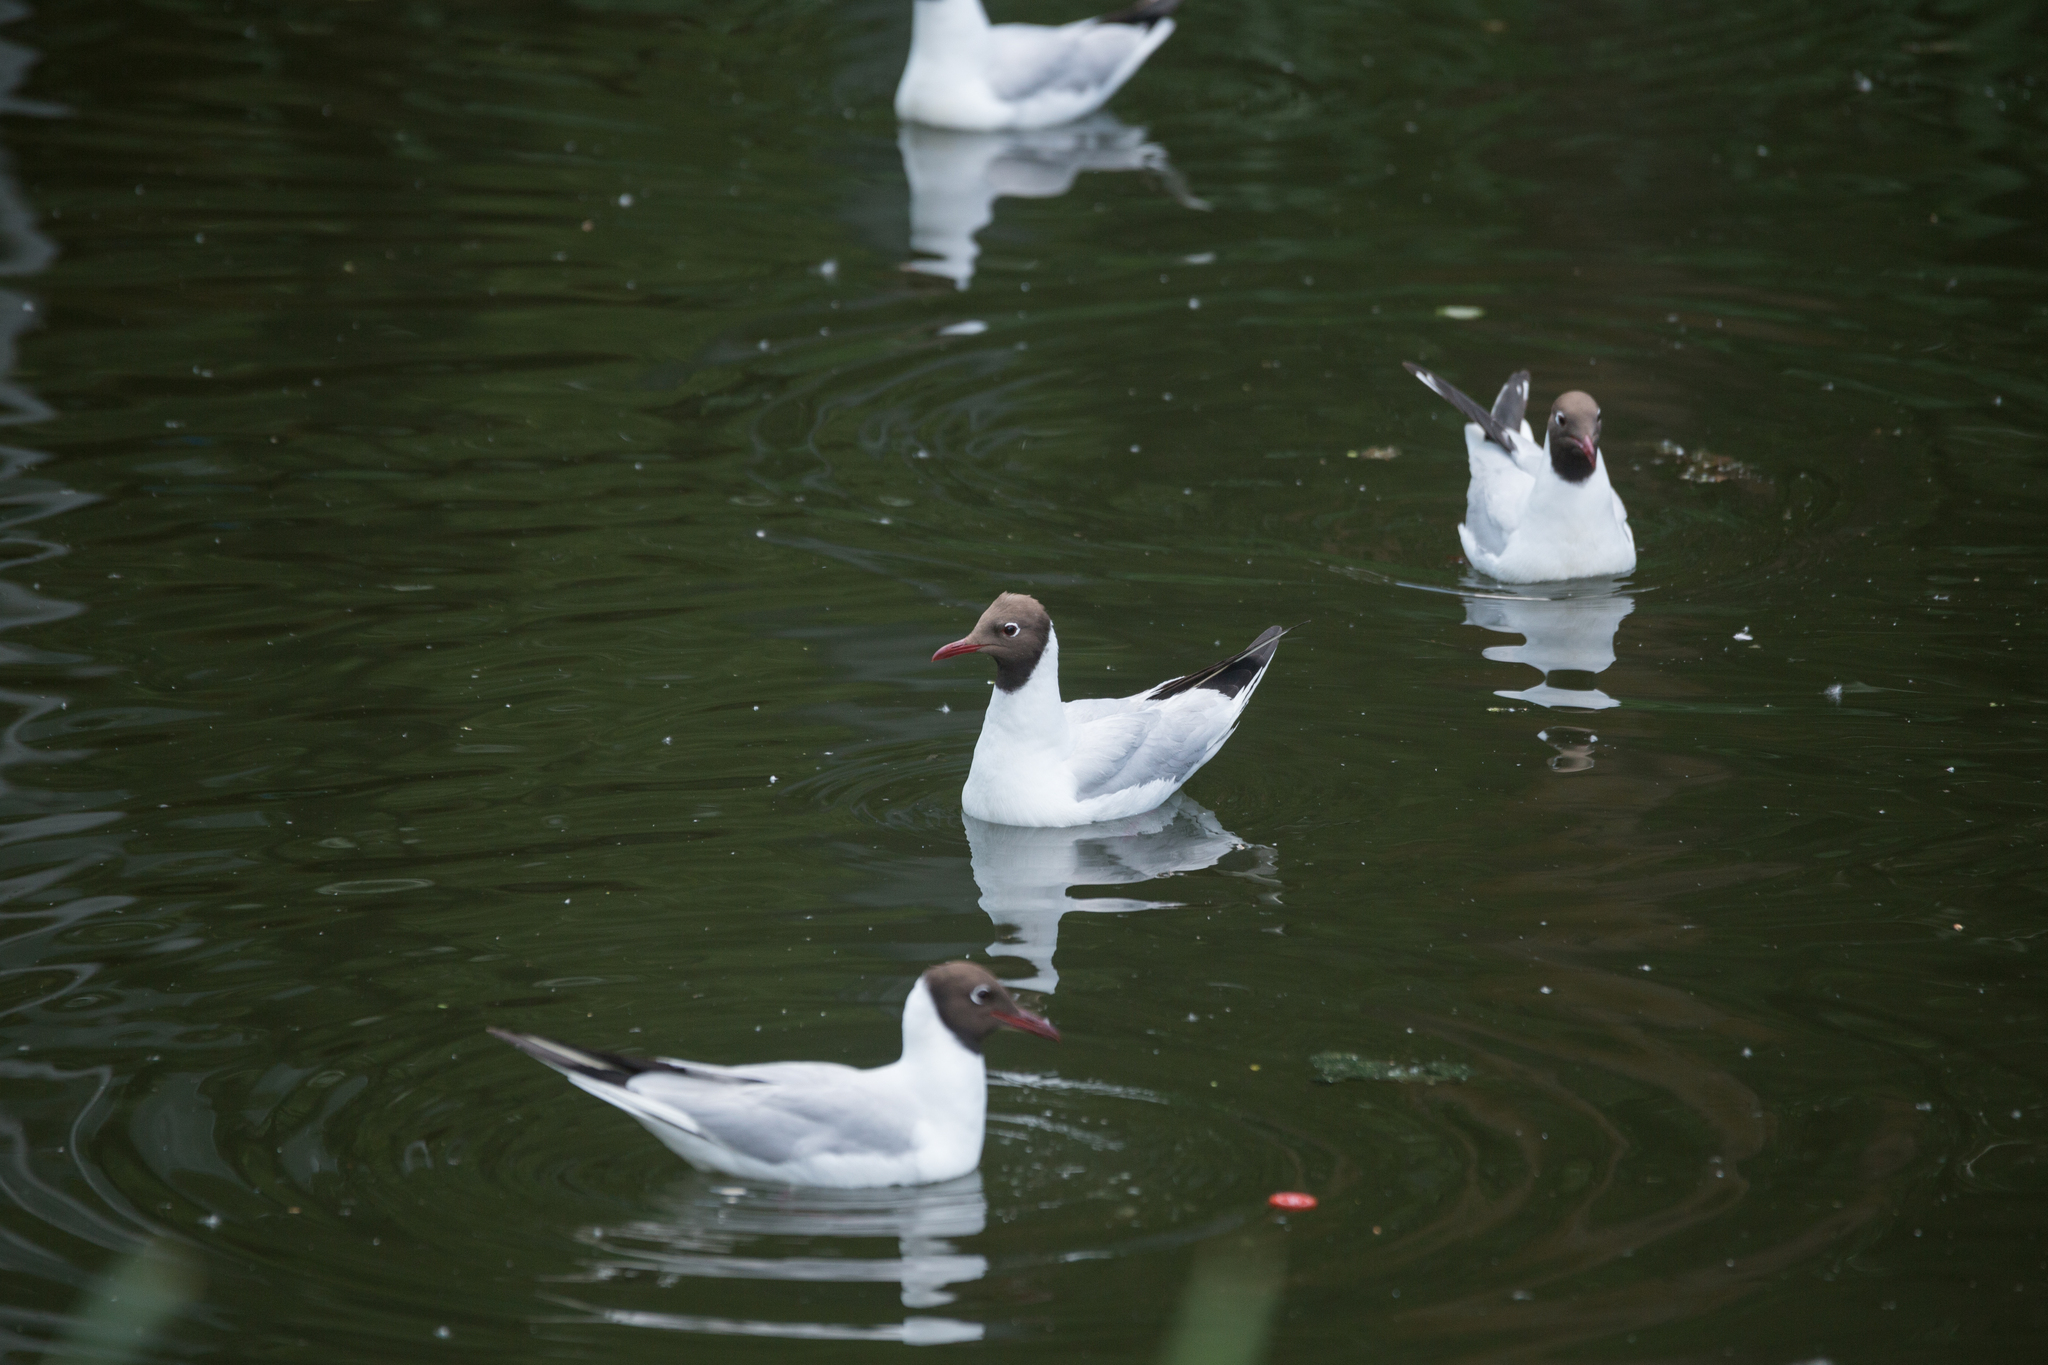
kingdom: Animalia
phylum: Chordata
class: Aves
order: Charadriiformes
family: Laridae
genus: Chroicocephalus
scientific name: Chroicocephalus ridibundus
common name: Black-headed gull
